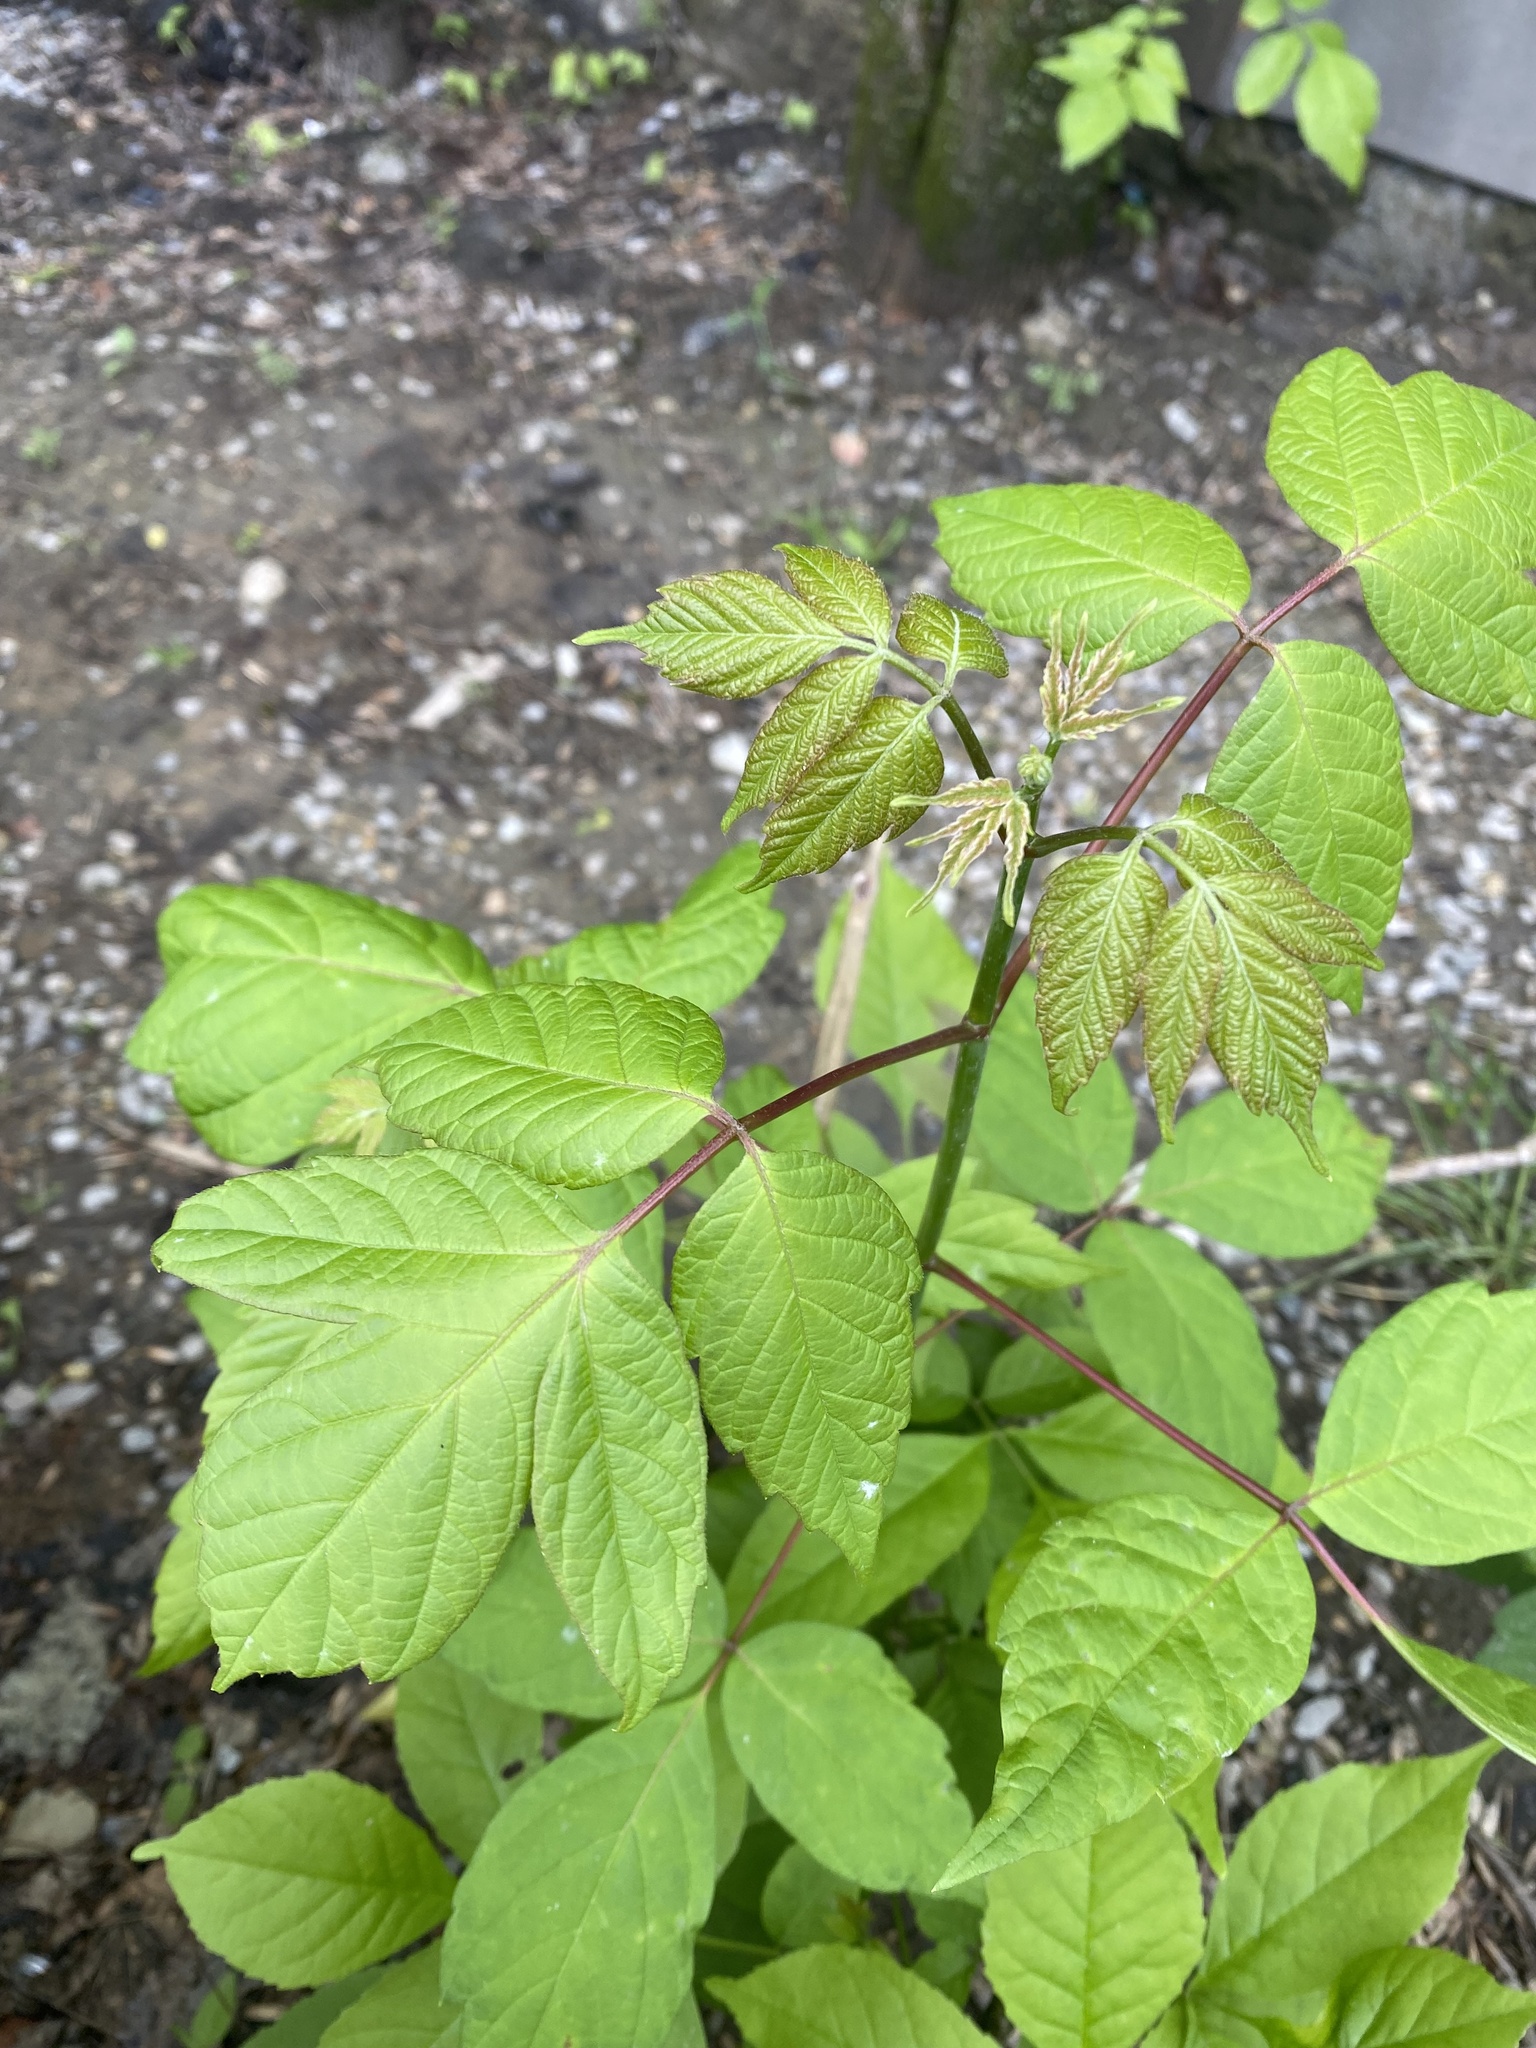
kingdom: Plantae
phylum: Tracheophyta
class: Magnoliopsida
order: Sapindales
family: Sapindaceae
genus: Acer
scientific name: Acer negundo
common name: Ashleaf maple
